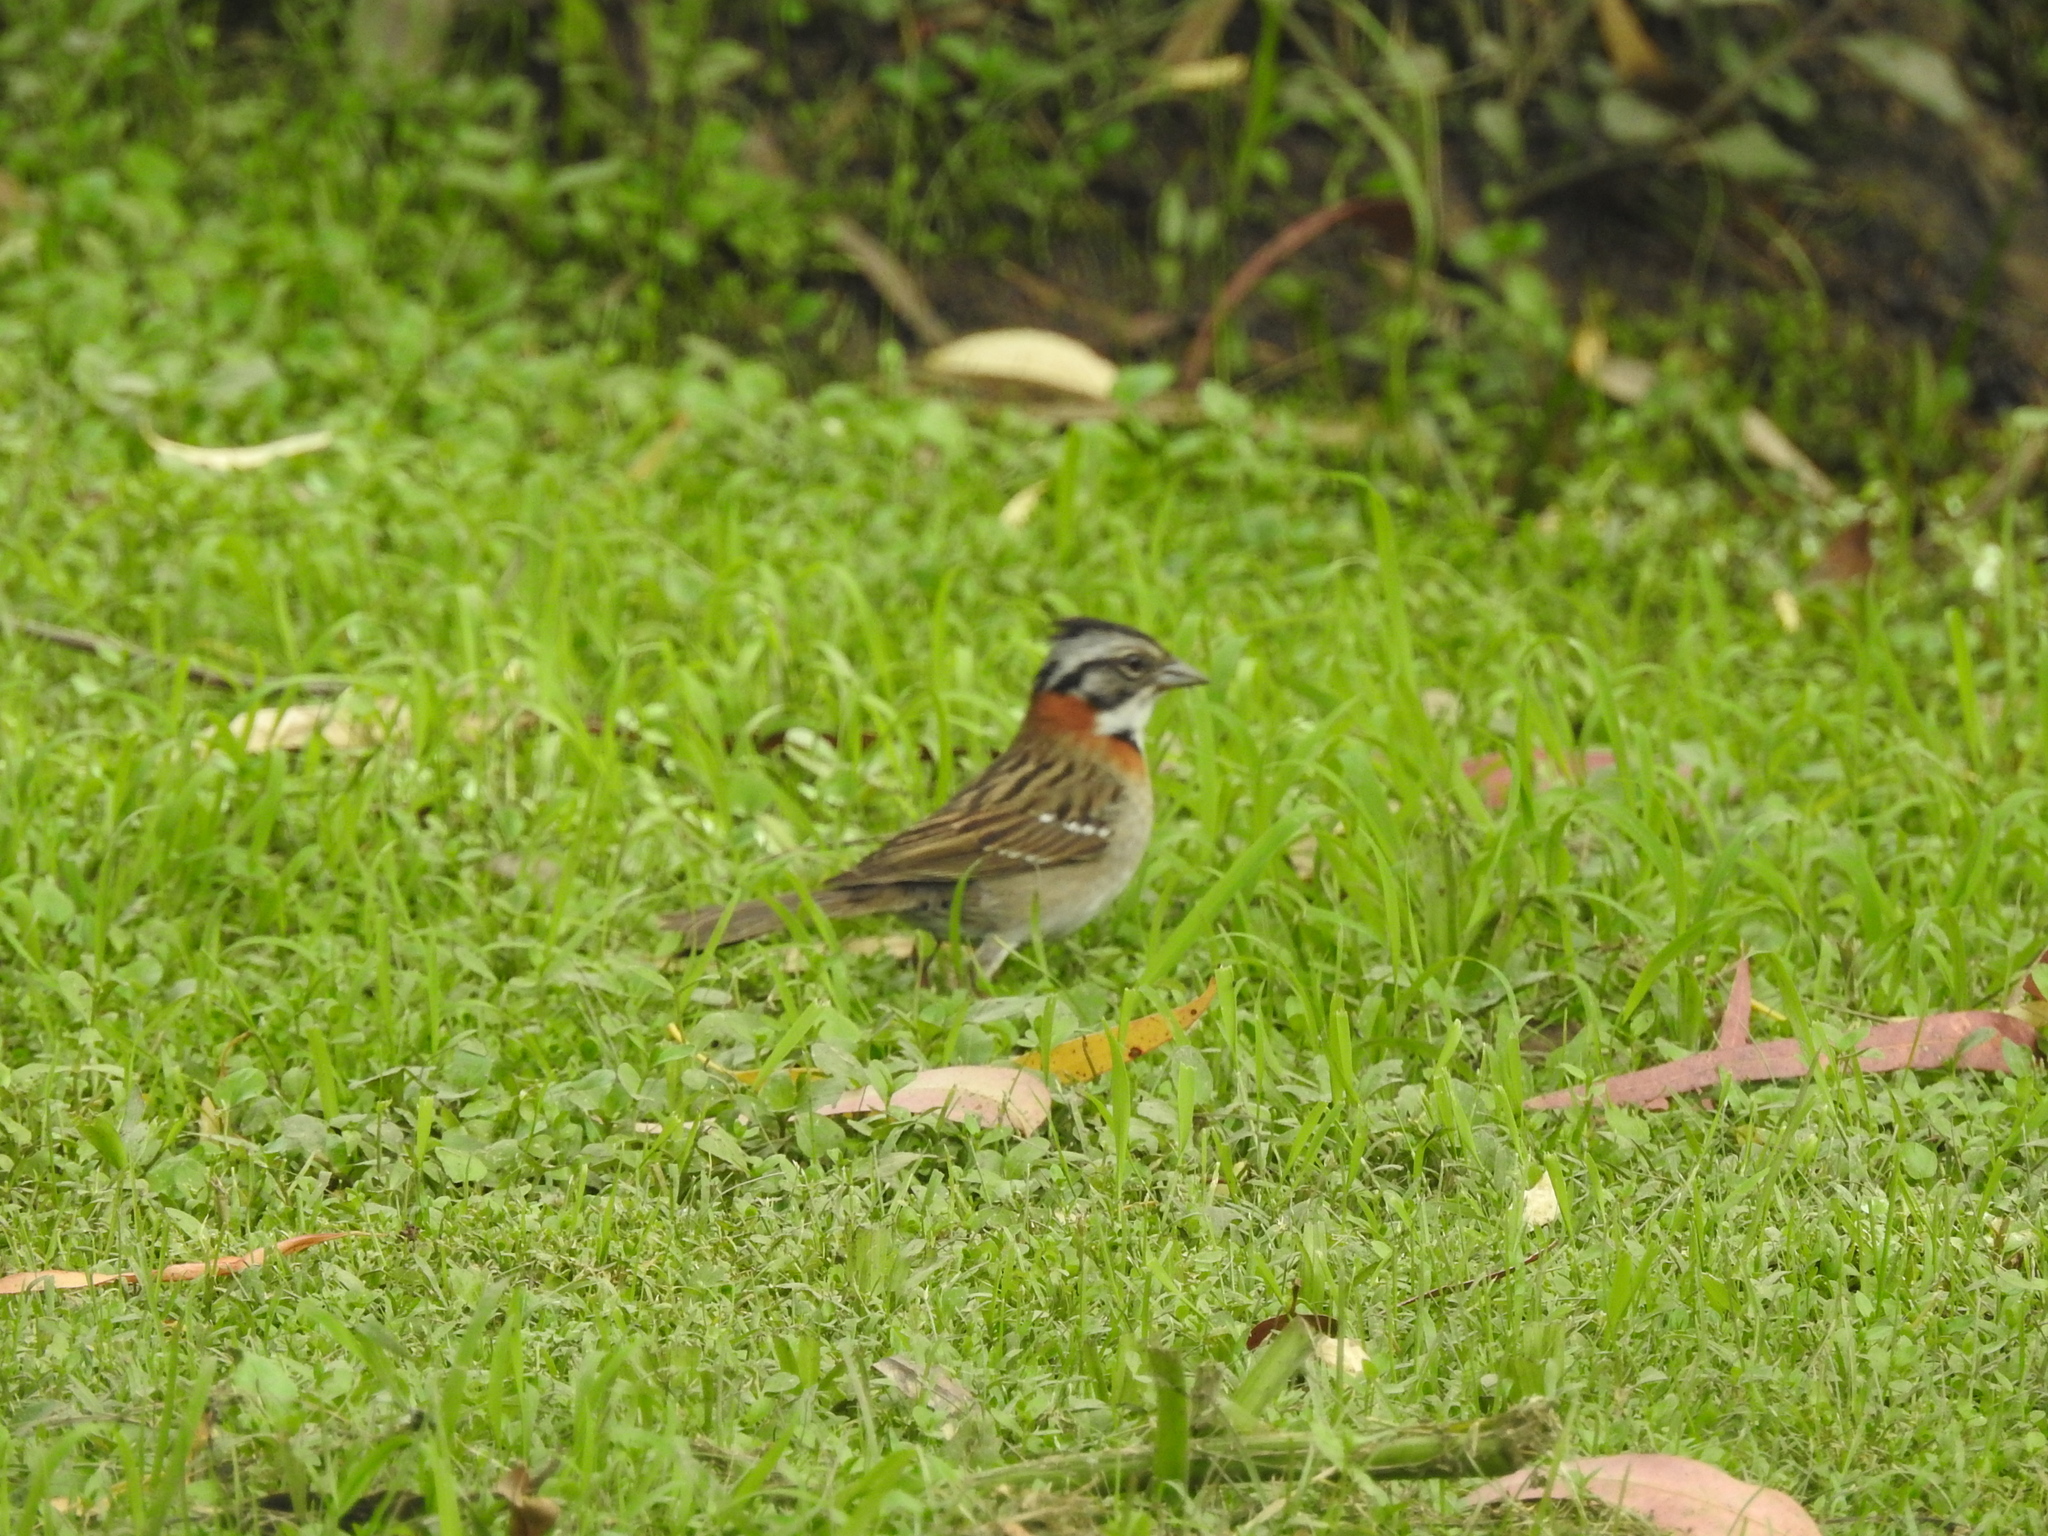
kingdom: Animalia
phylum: Chordata
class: Aves
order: Passeriformes
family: Passerellidae
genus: Zonotrichia
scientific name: Zonotrichia capensis
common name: Rufous-collared sparrow
